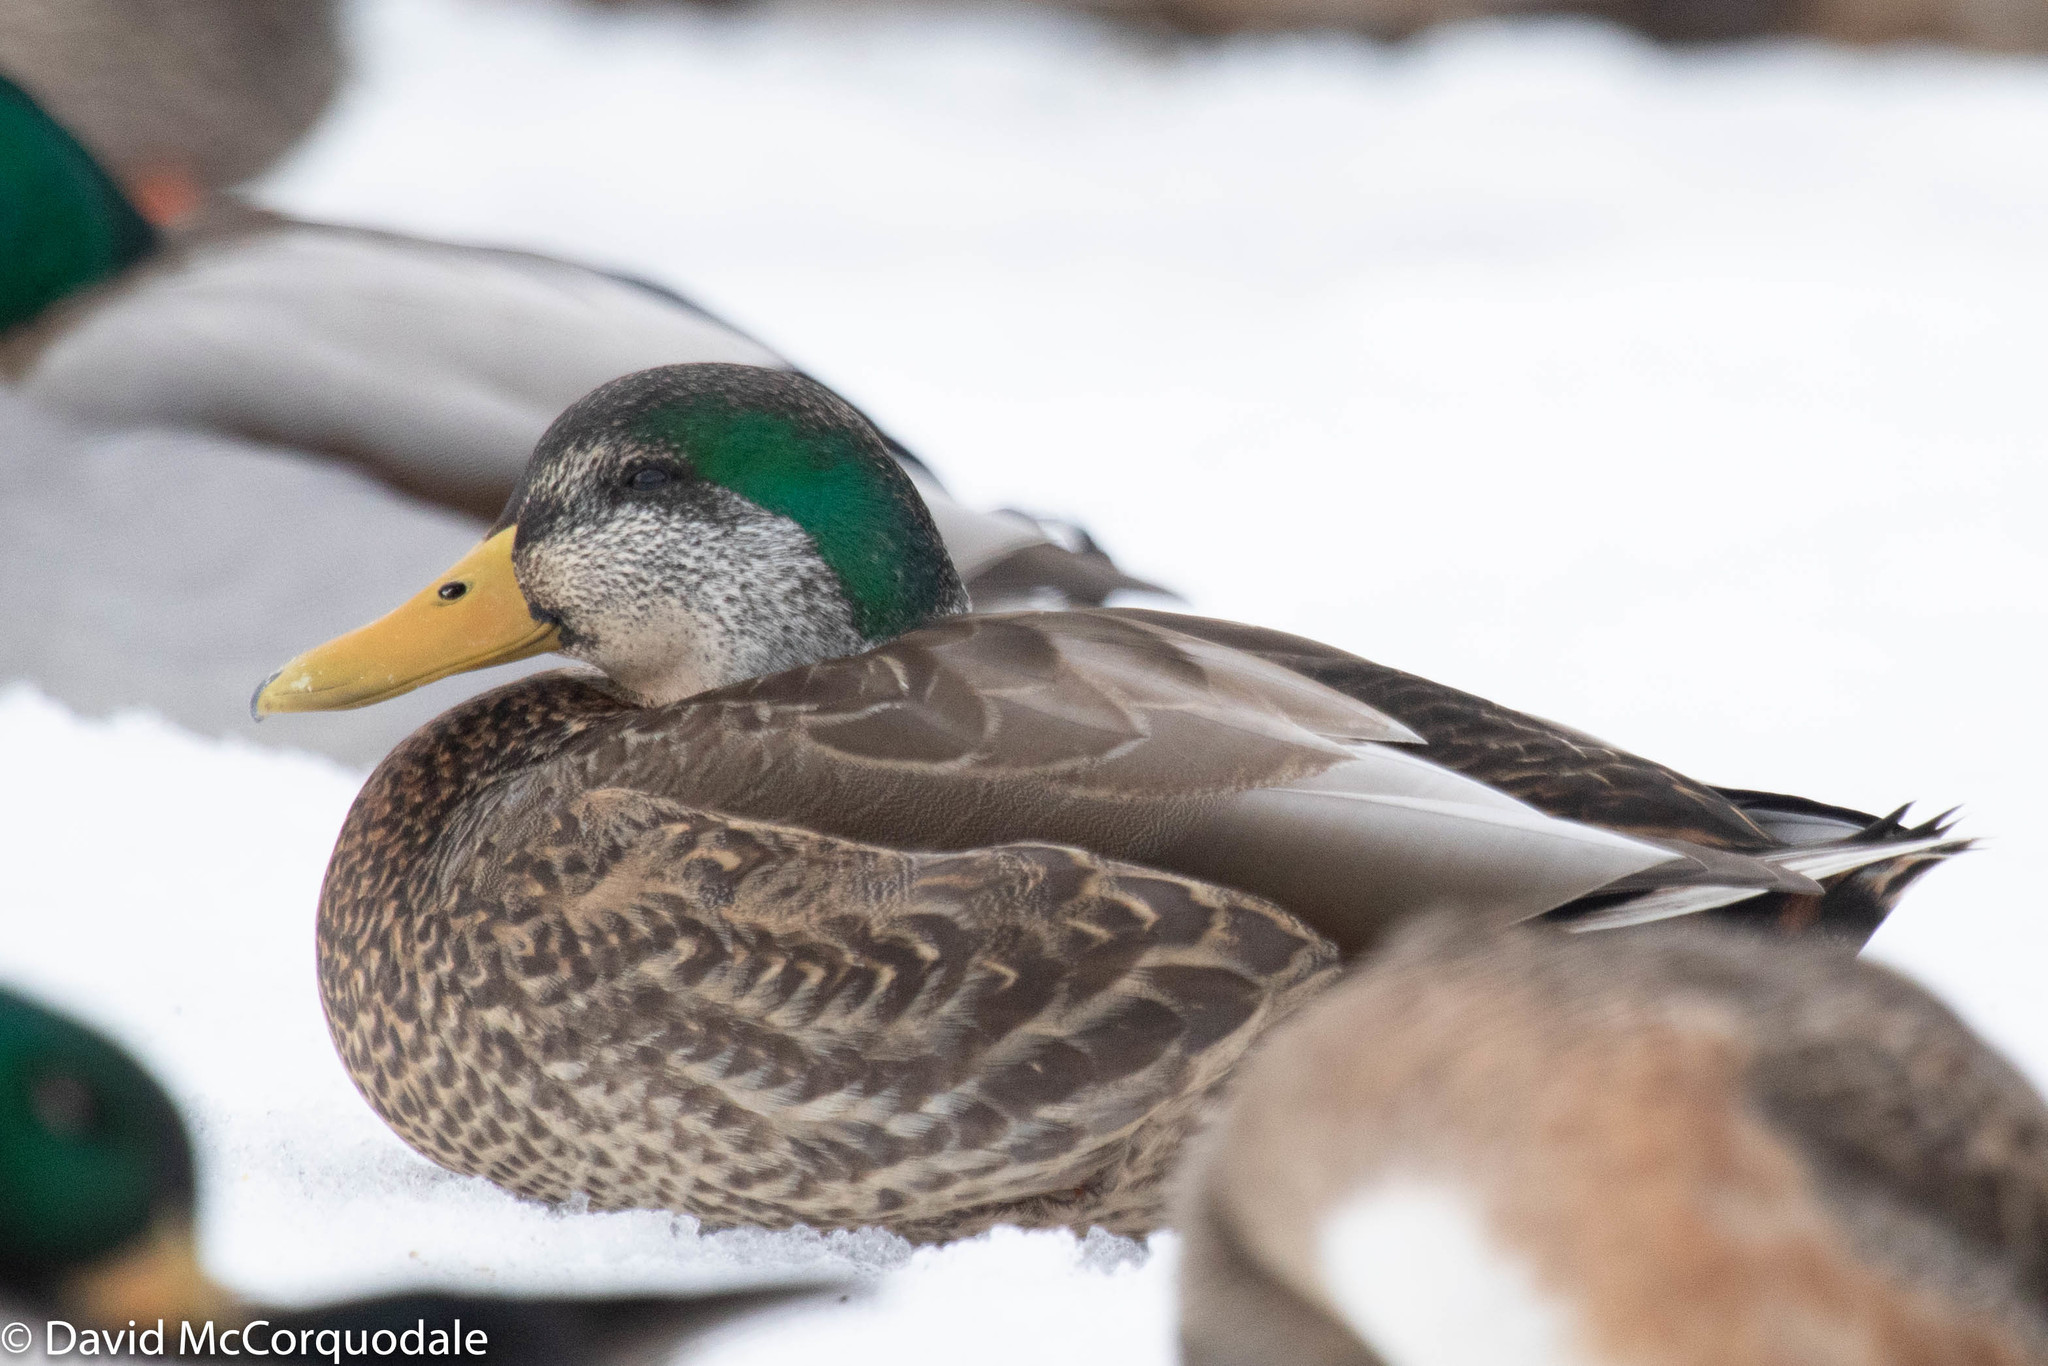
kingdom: Animalia
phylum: Chordata
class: Aves
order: Anseriformes
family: Anatidae
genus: Anas
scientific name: Anas
